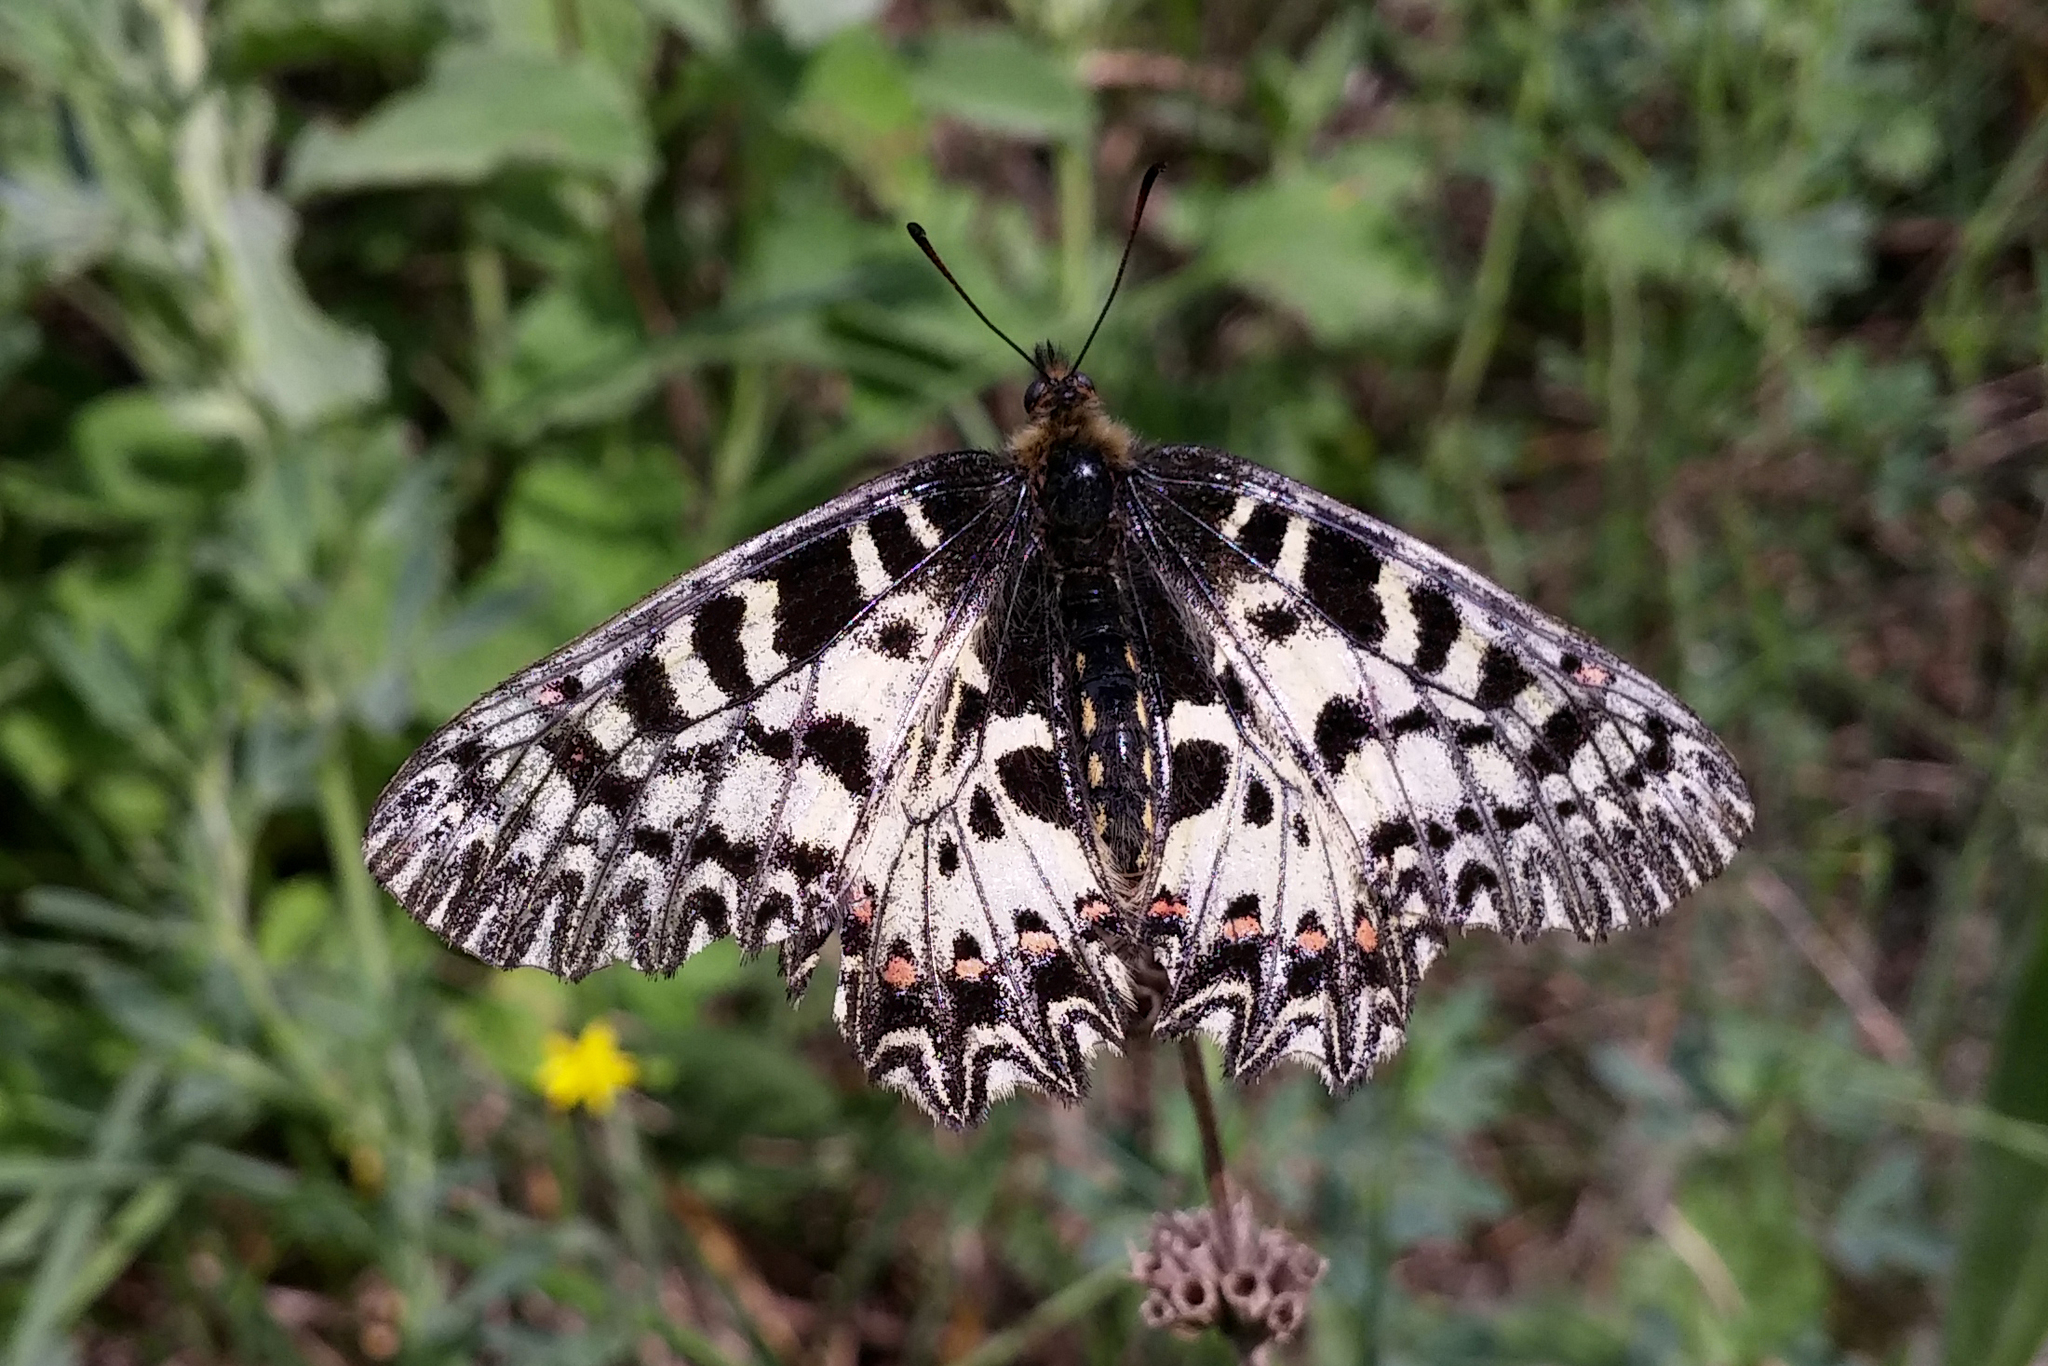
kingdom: Animalia
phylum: Arthropoda
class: Insecta
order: Lepidoptera
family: Papilionidae
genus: Zerynthia
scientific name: Zerynthia polyxena
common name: Southern festoon
